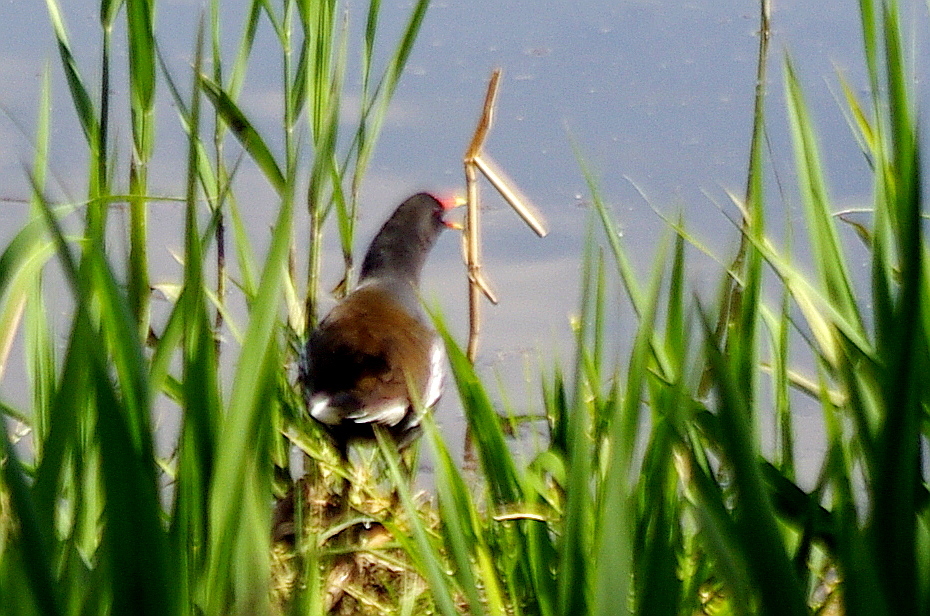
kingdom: Animalia
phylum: Chordata
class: Aves
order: Gruiformes
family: Rallidae
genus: Gallinula
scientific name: Gallinula chloropus
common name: Common moorhen
